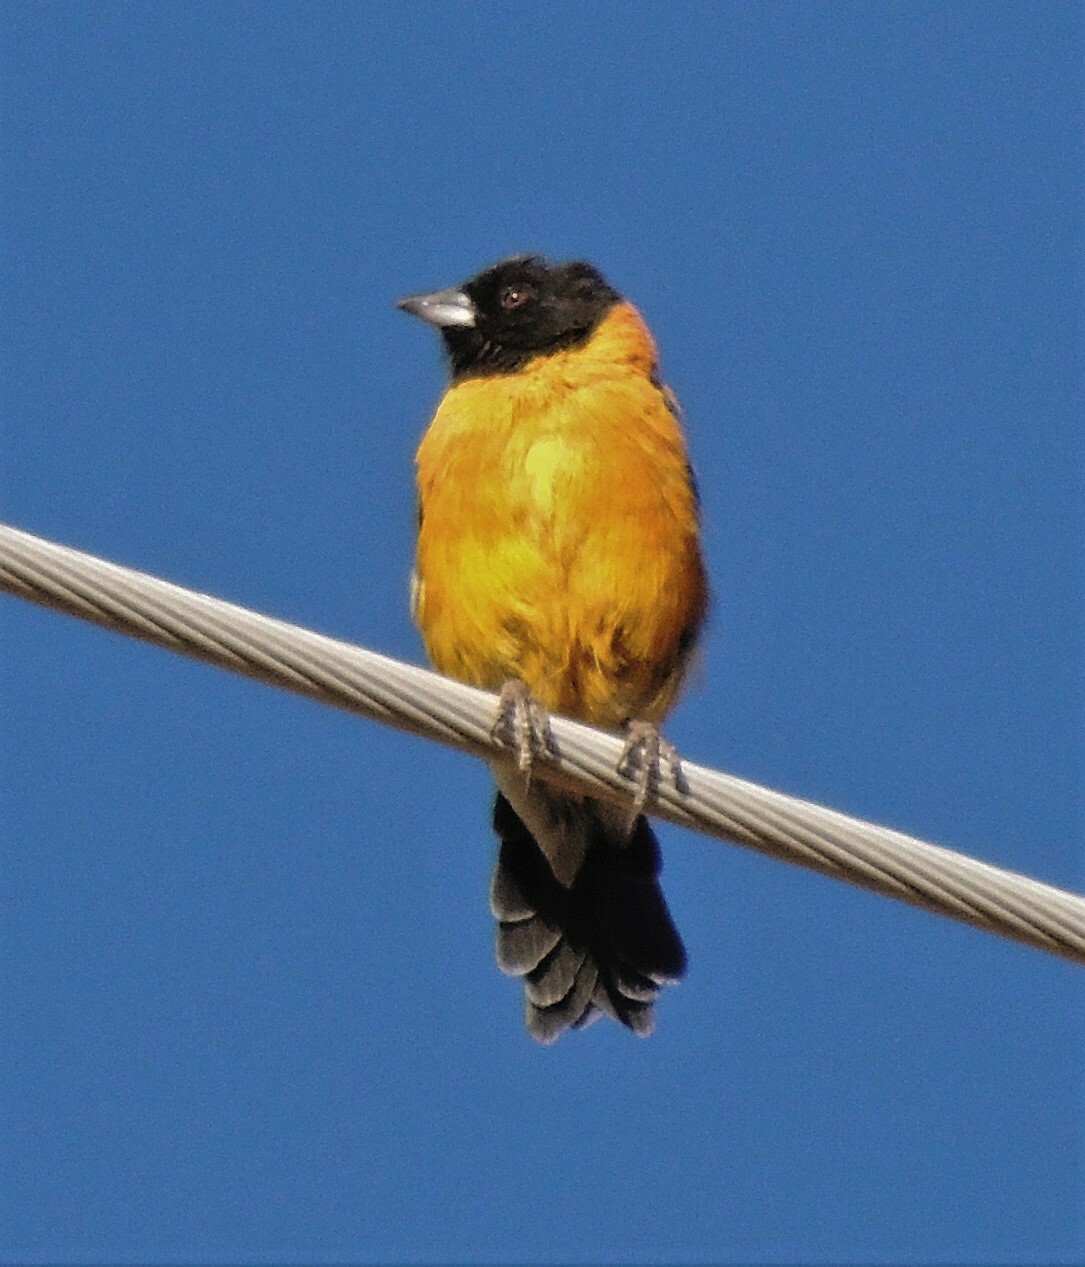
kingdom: Animalia
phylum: Chordata
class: Aves
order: Passeriformes
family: Thraupidae
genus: Phrygilus
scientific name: Phrygilus atriceps
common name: Black-hooded sierra finch
